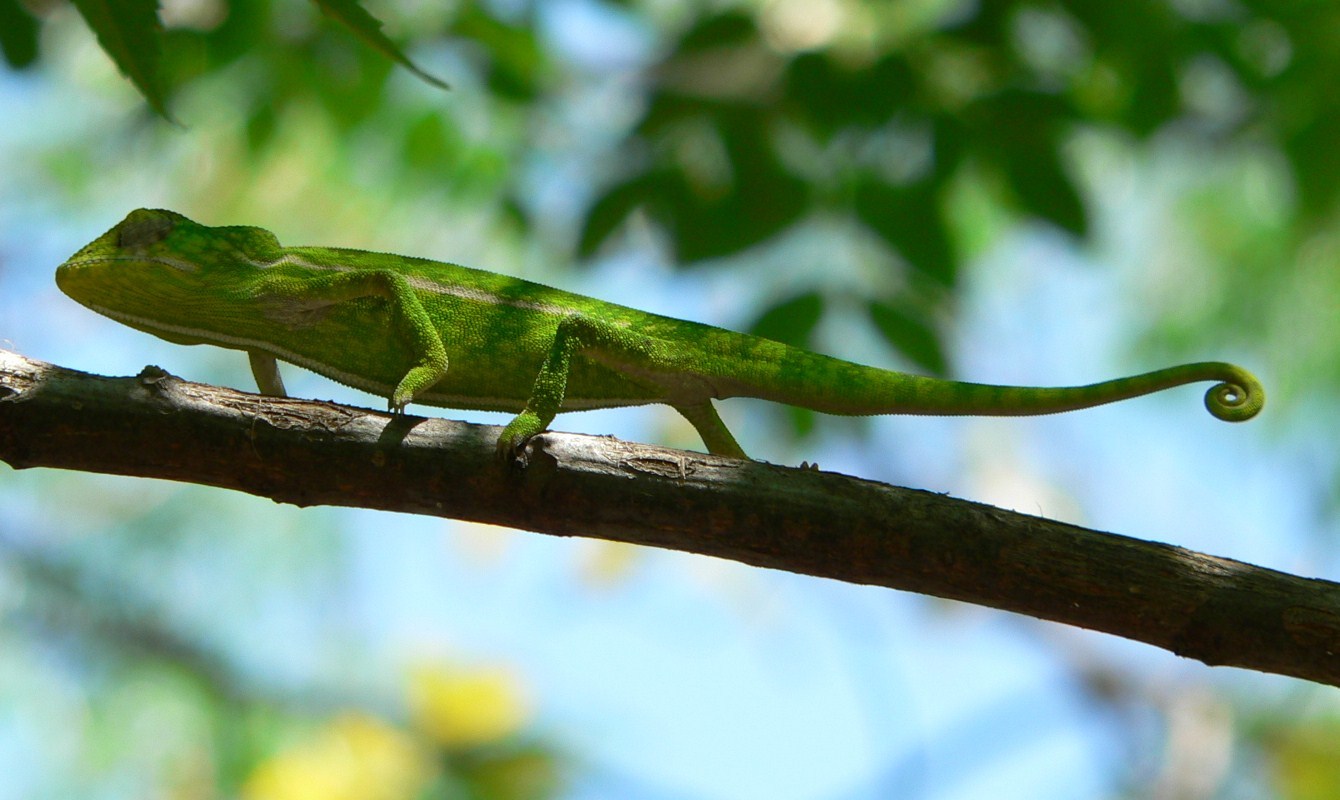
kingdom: Animalia
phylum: Chordata
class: Squamata
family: Chamaeleonidae
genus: Furcifer
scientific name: Furcifer major
